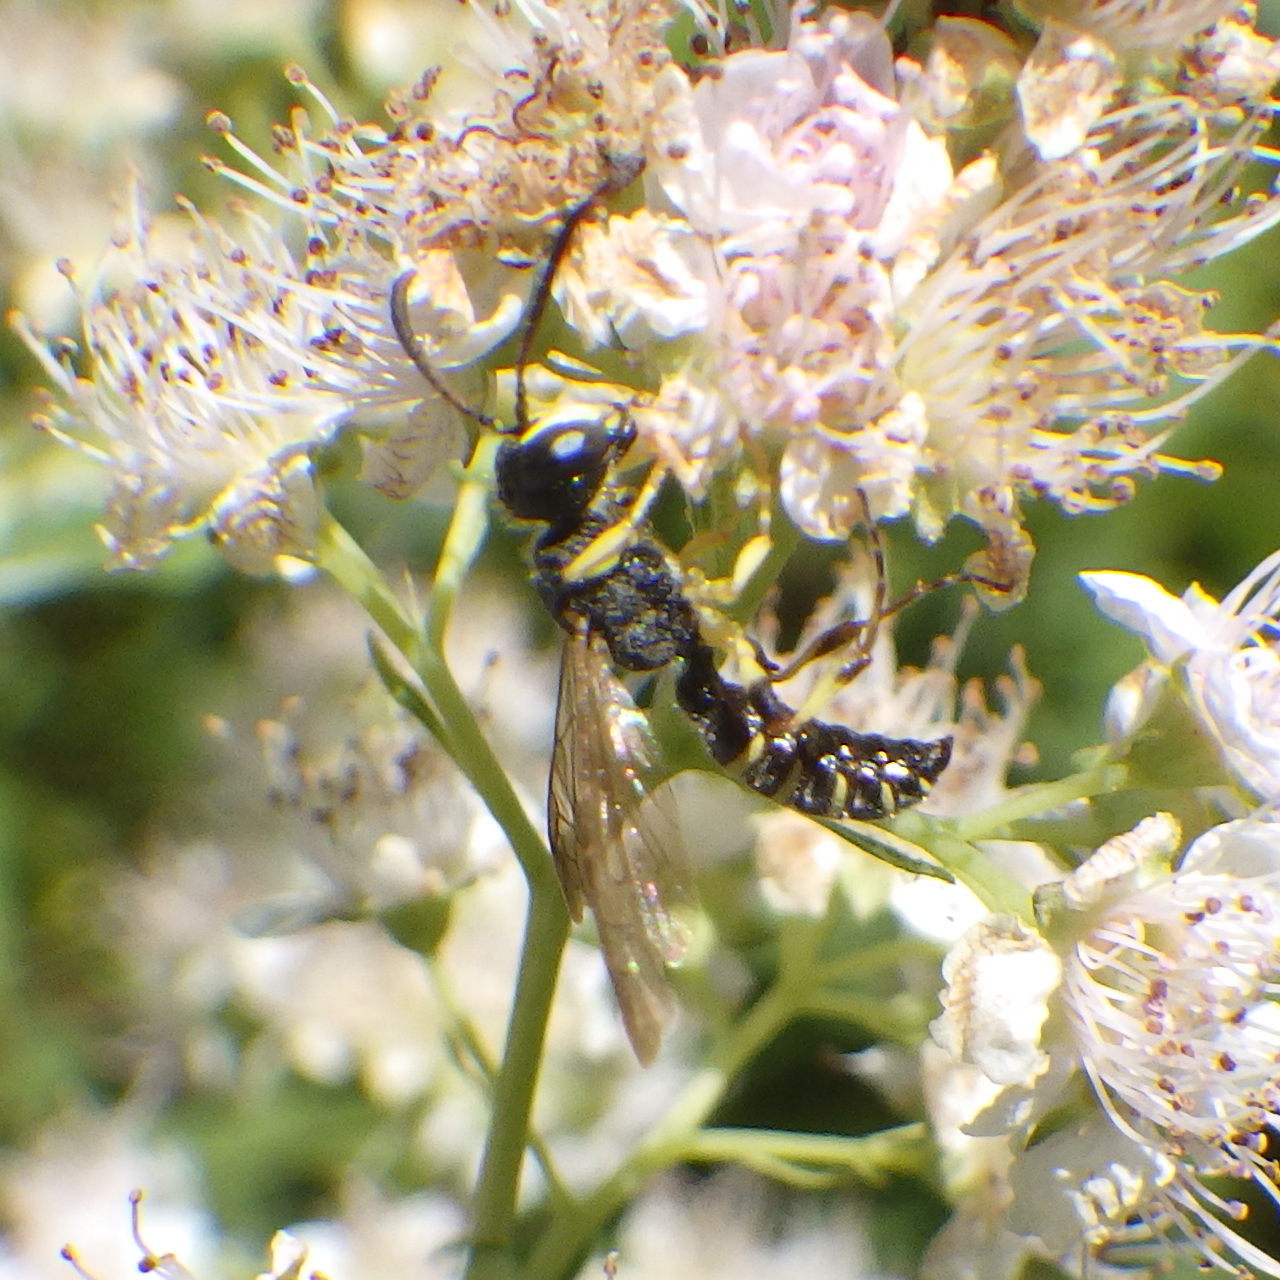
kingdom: Animalia
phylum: Arthropoda
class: Insecta
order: Hymenoptera
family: Crabronidae
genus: Cerceris
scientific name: Cerceris nigrescens
